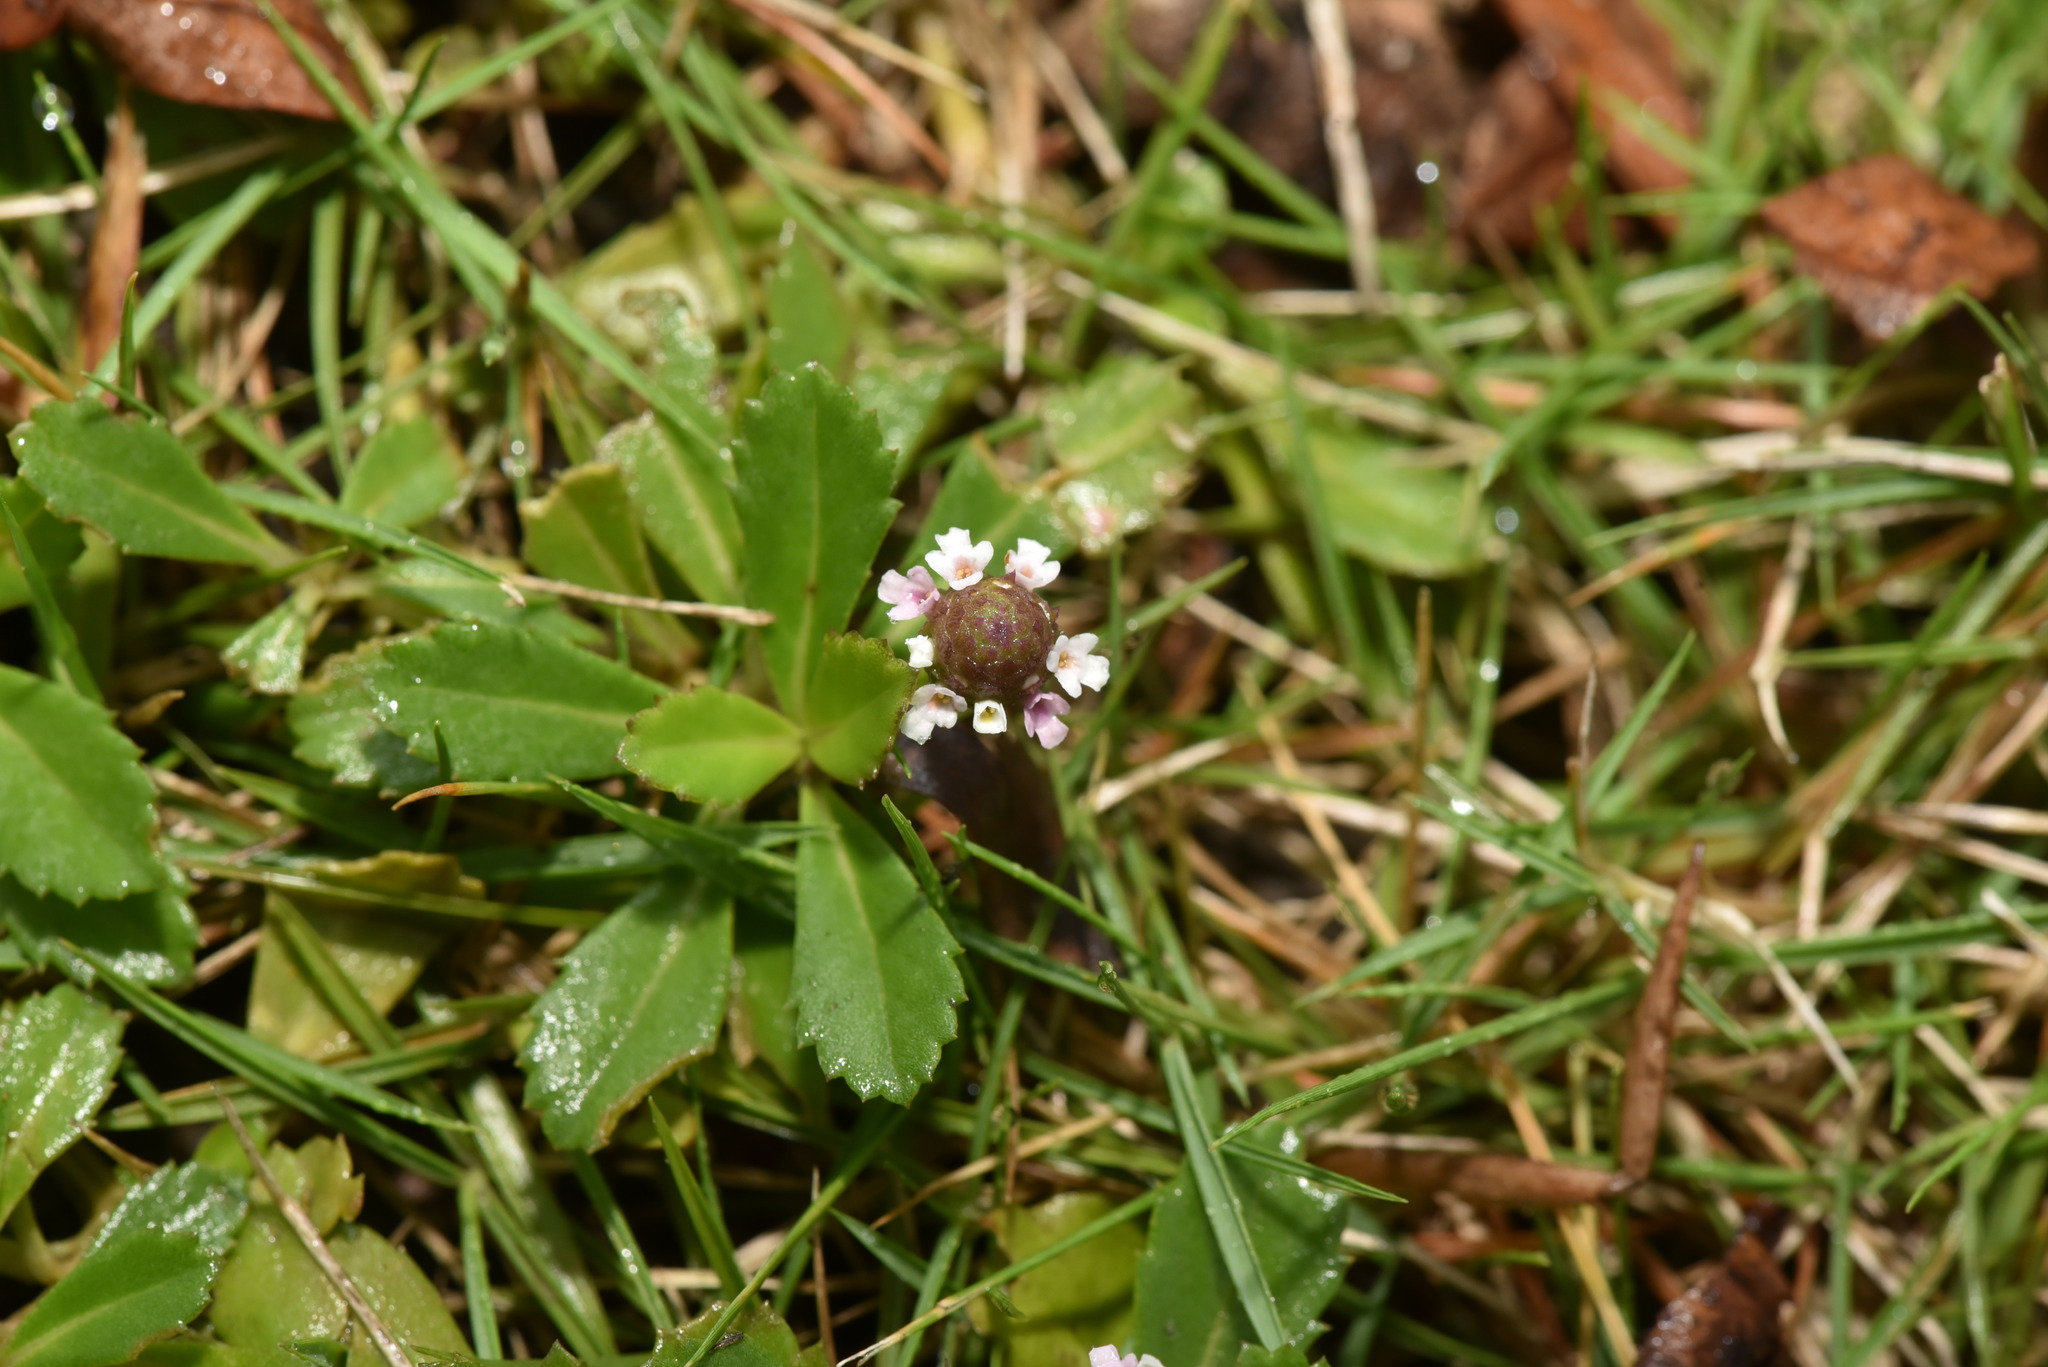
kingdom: Plantae
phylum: Tracheophyta
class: Magnoliopsida
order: Lamiales
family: Verbenaceae
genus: Phyla
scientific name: Phyla nodiflora
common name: Frogfruit
